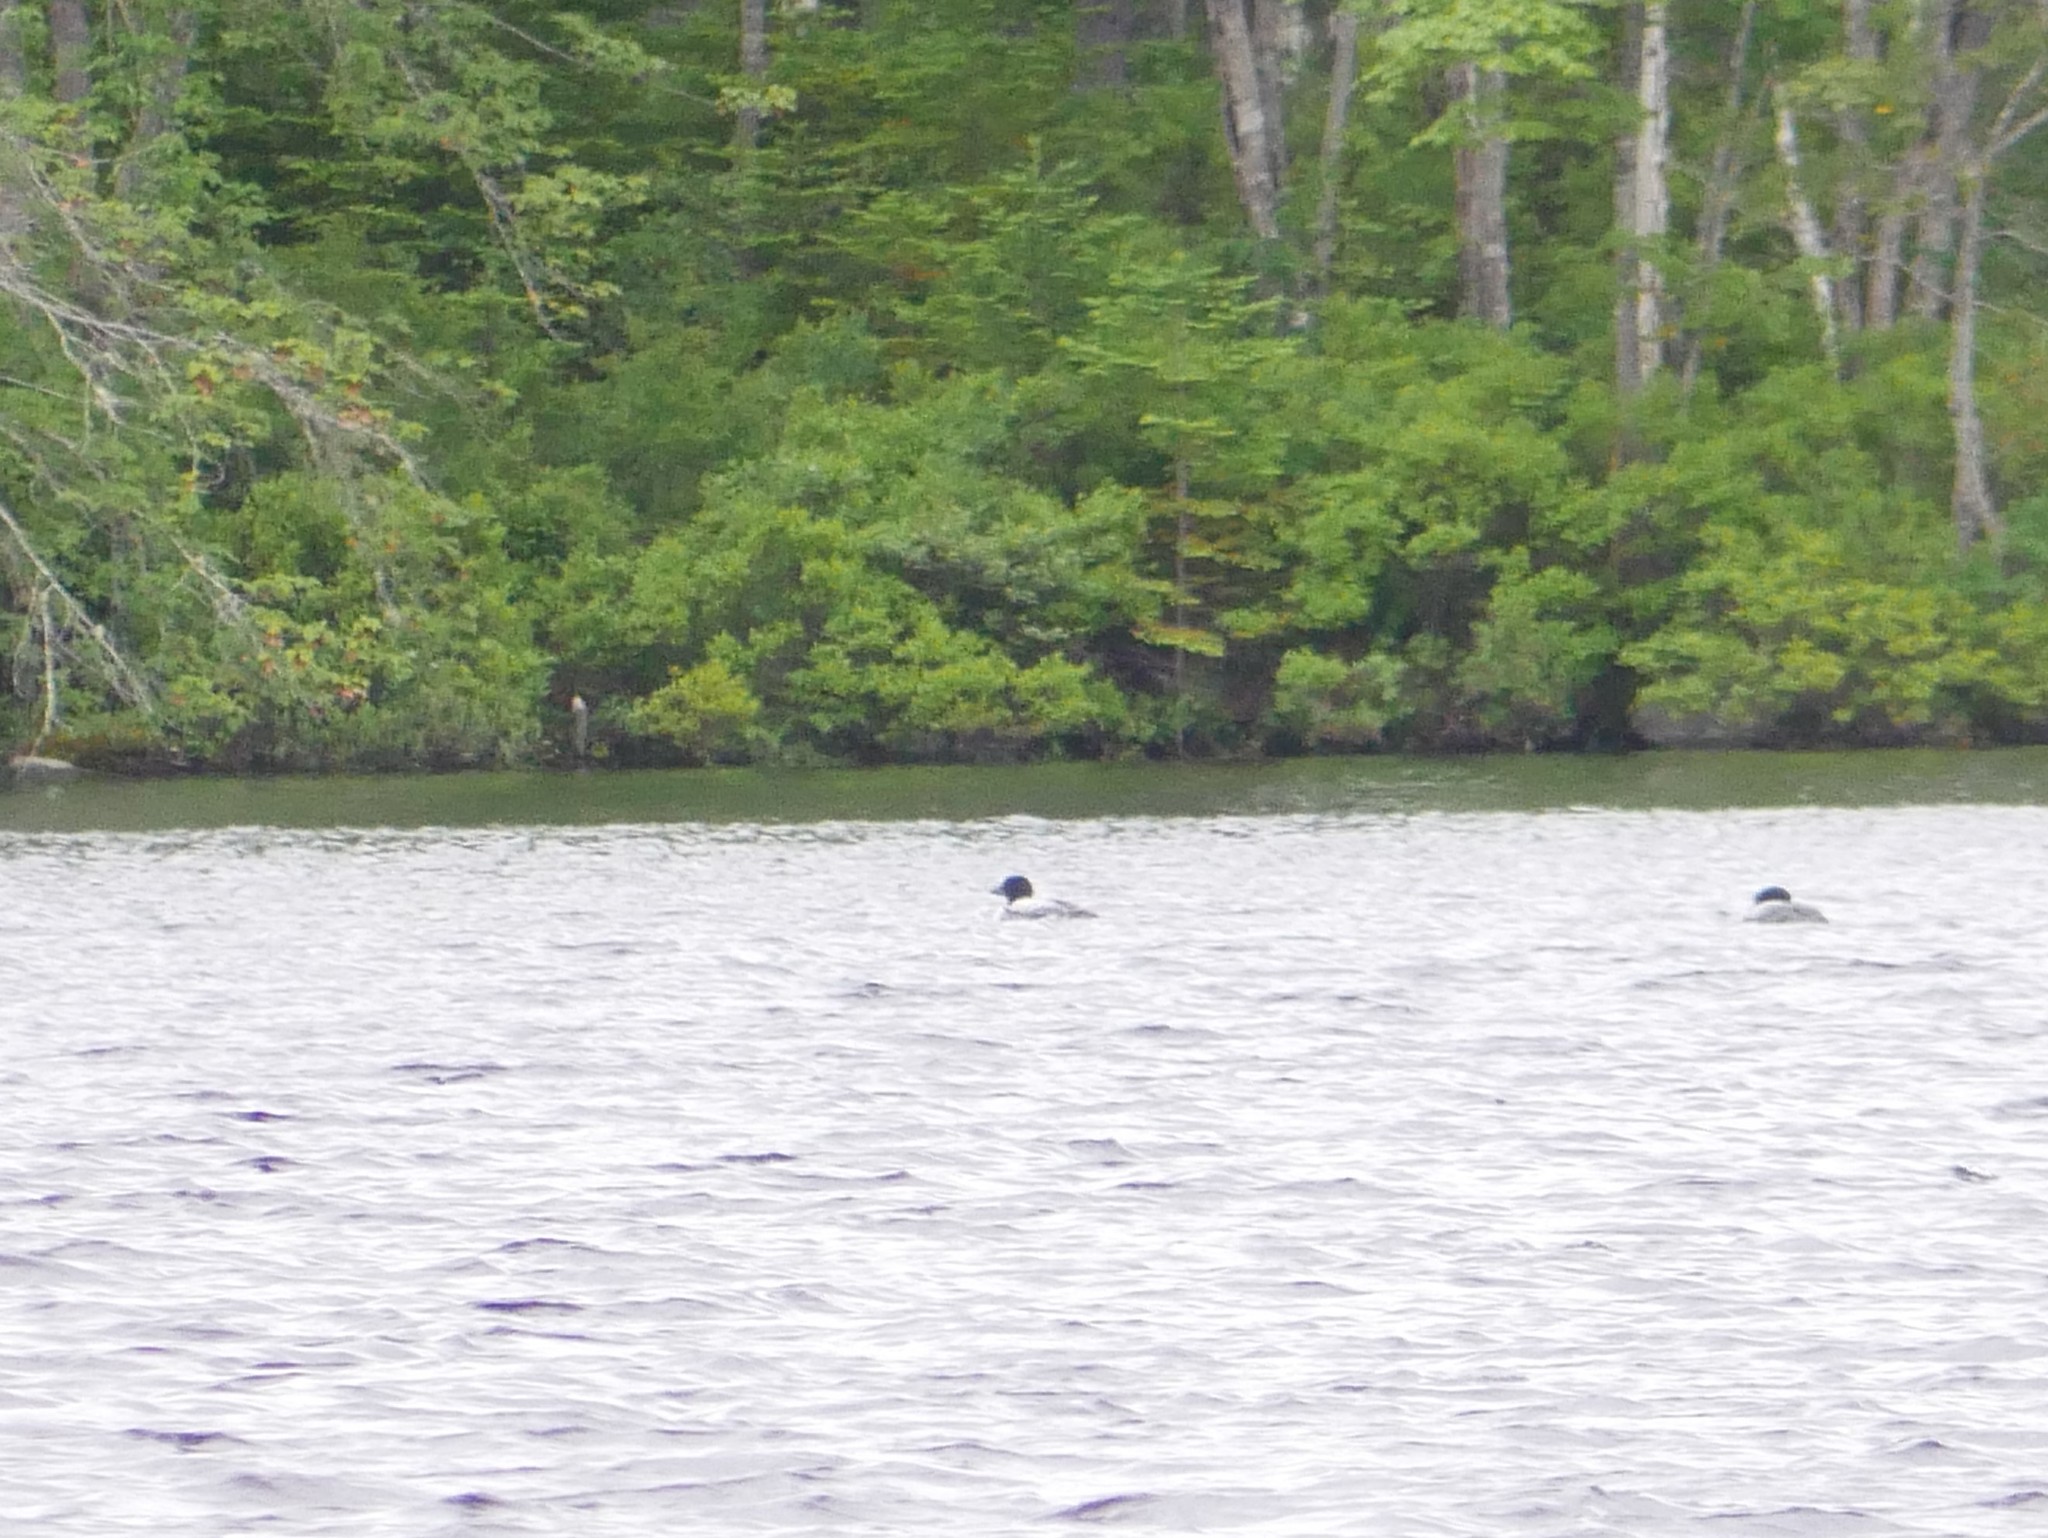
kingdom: Animalia
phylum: Chordata
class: Aves
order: Gaviiformes
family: Gaviidae
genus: Gavia
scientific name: Gavia immer
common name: Common loon
